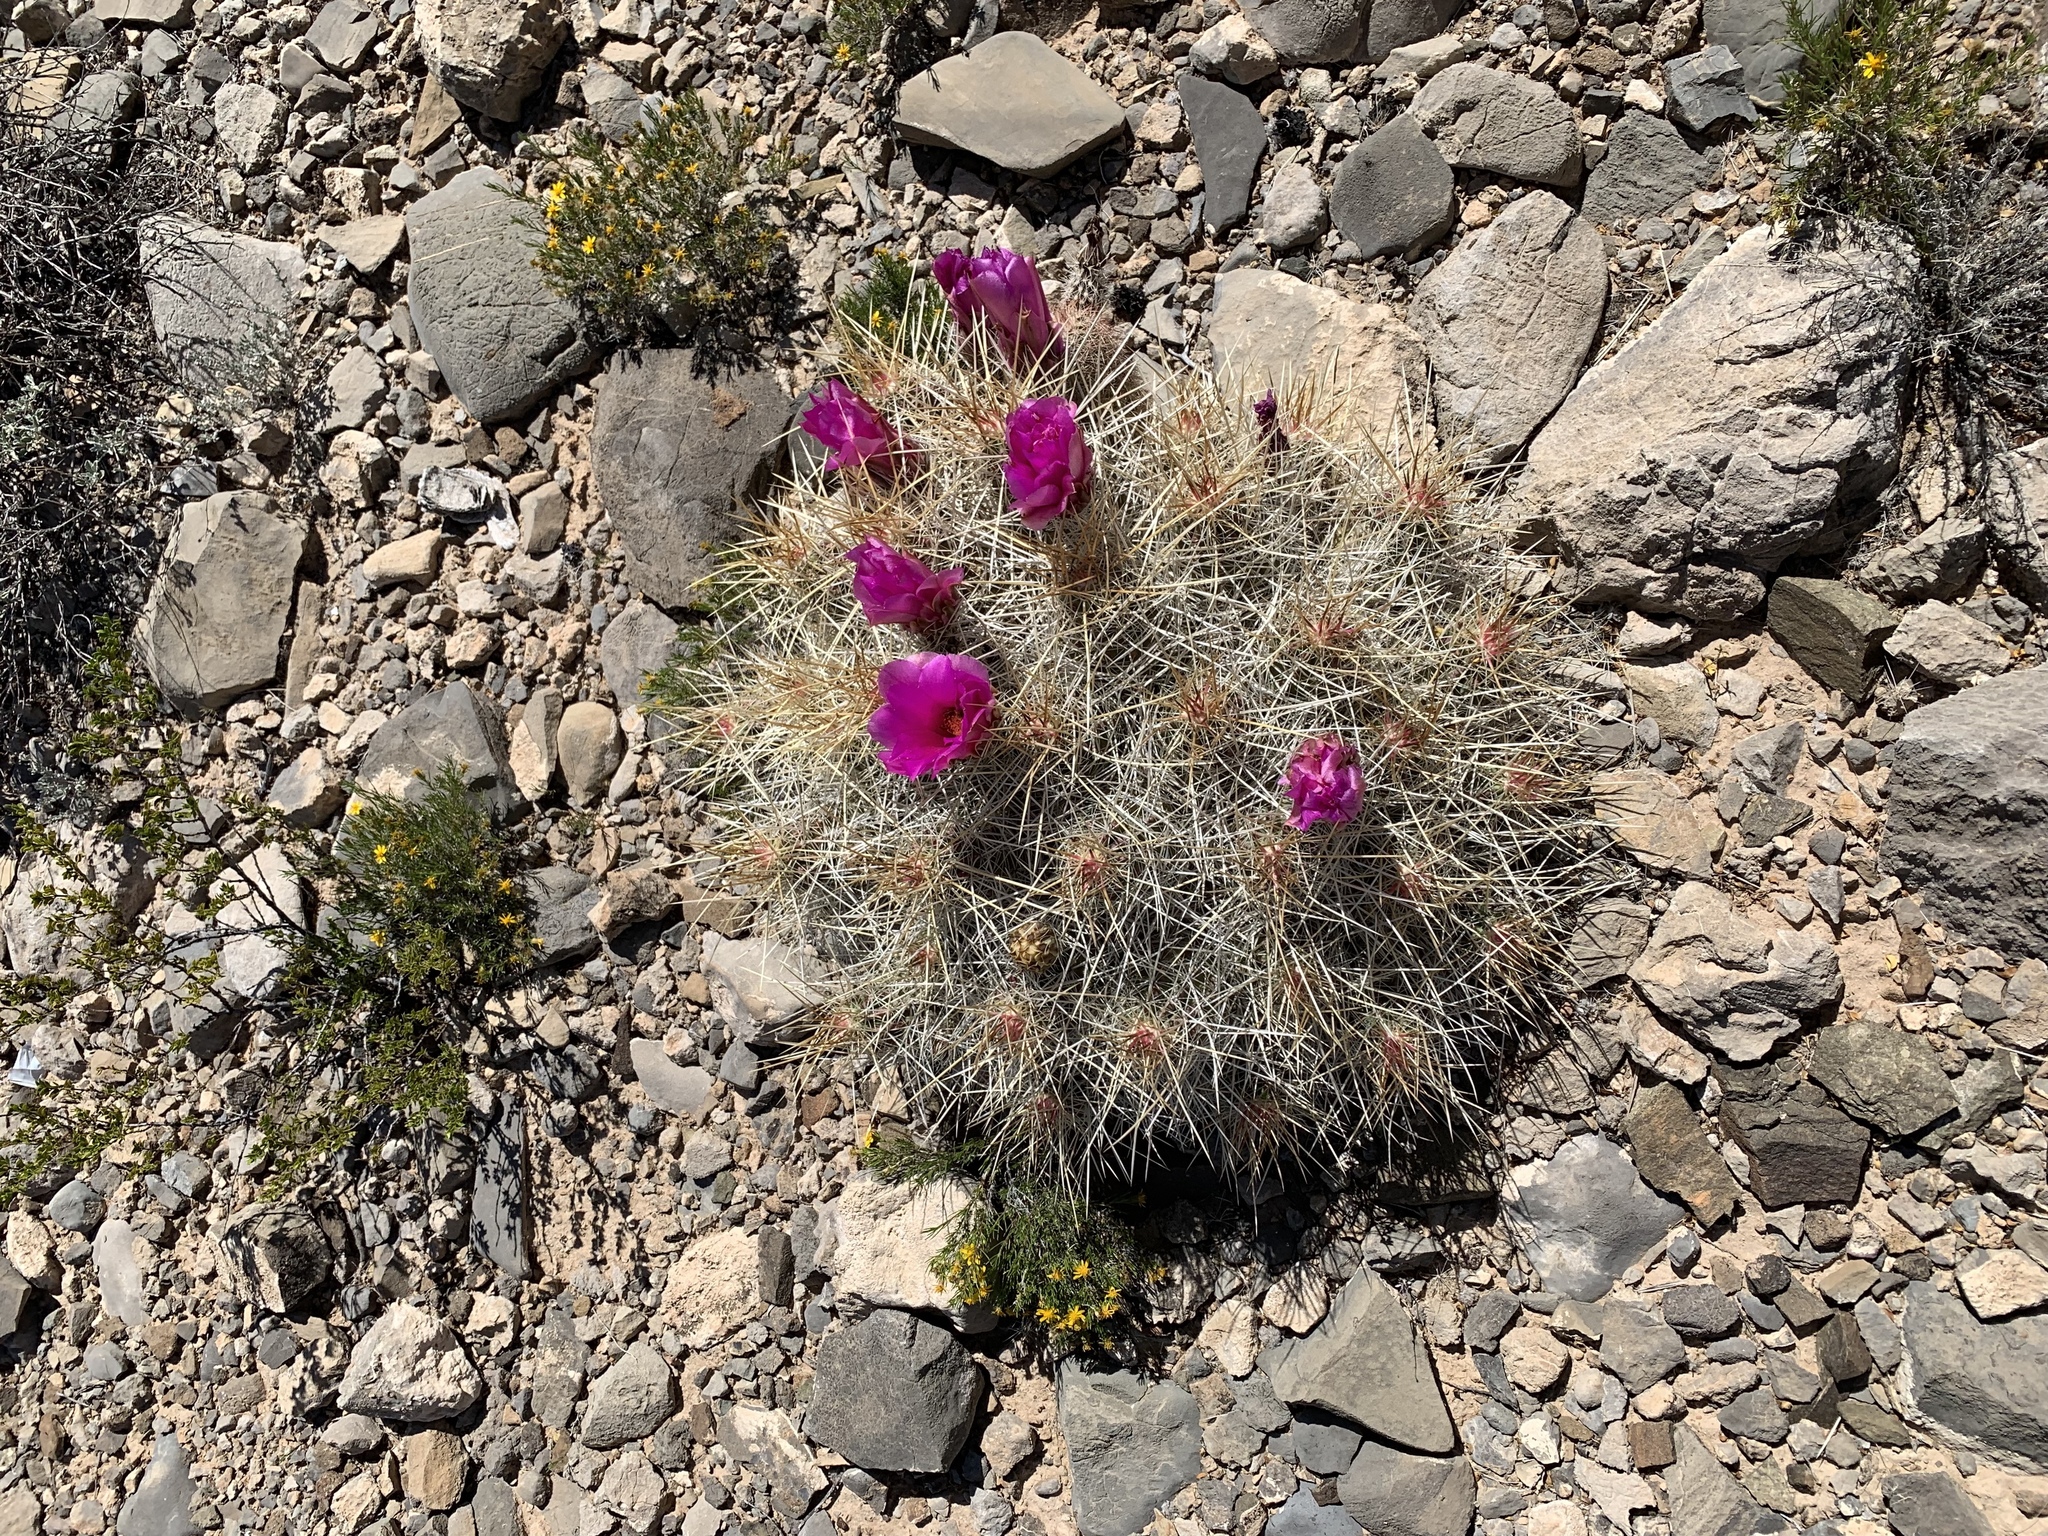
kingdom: Plantae
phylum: Tracheophyta
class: Magnoliopsida
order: Caryophyllales
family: Cactaceae
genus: Echinocereus
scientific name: Echinocereus stramineus
